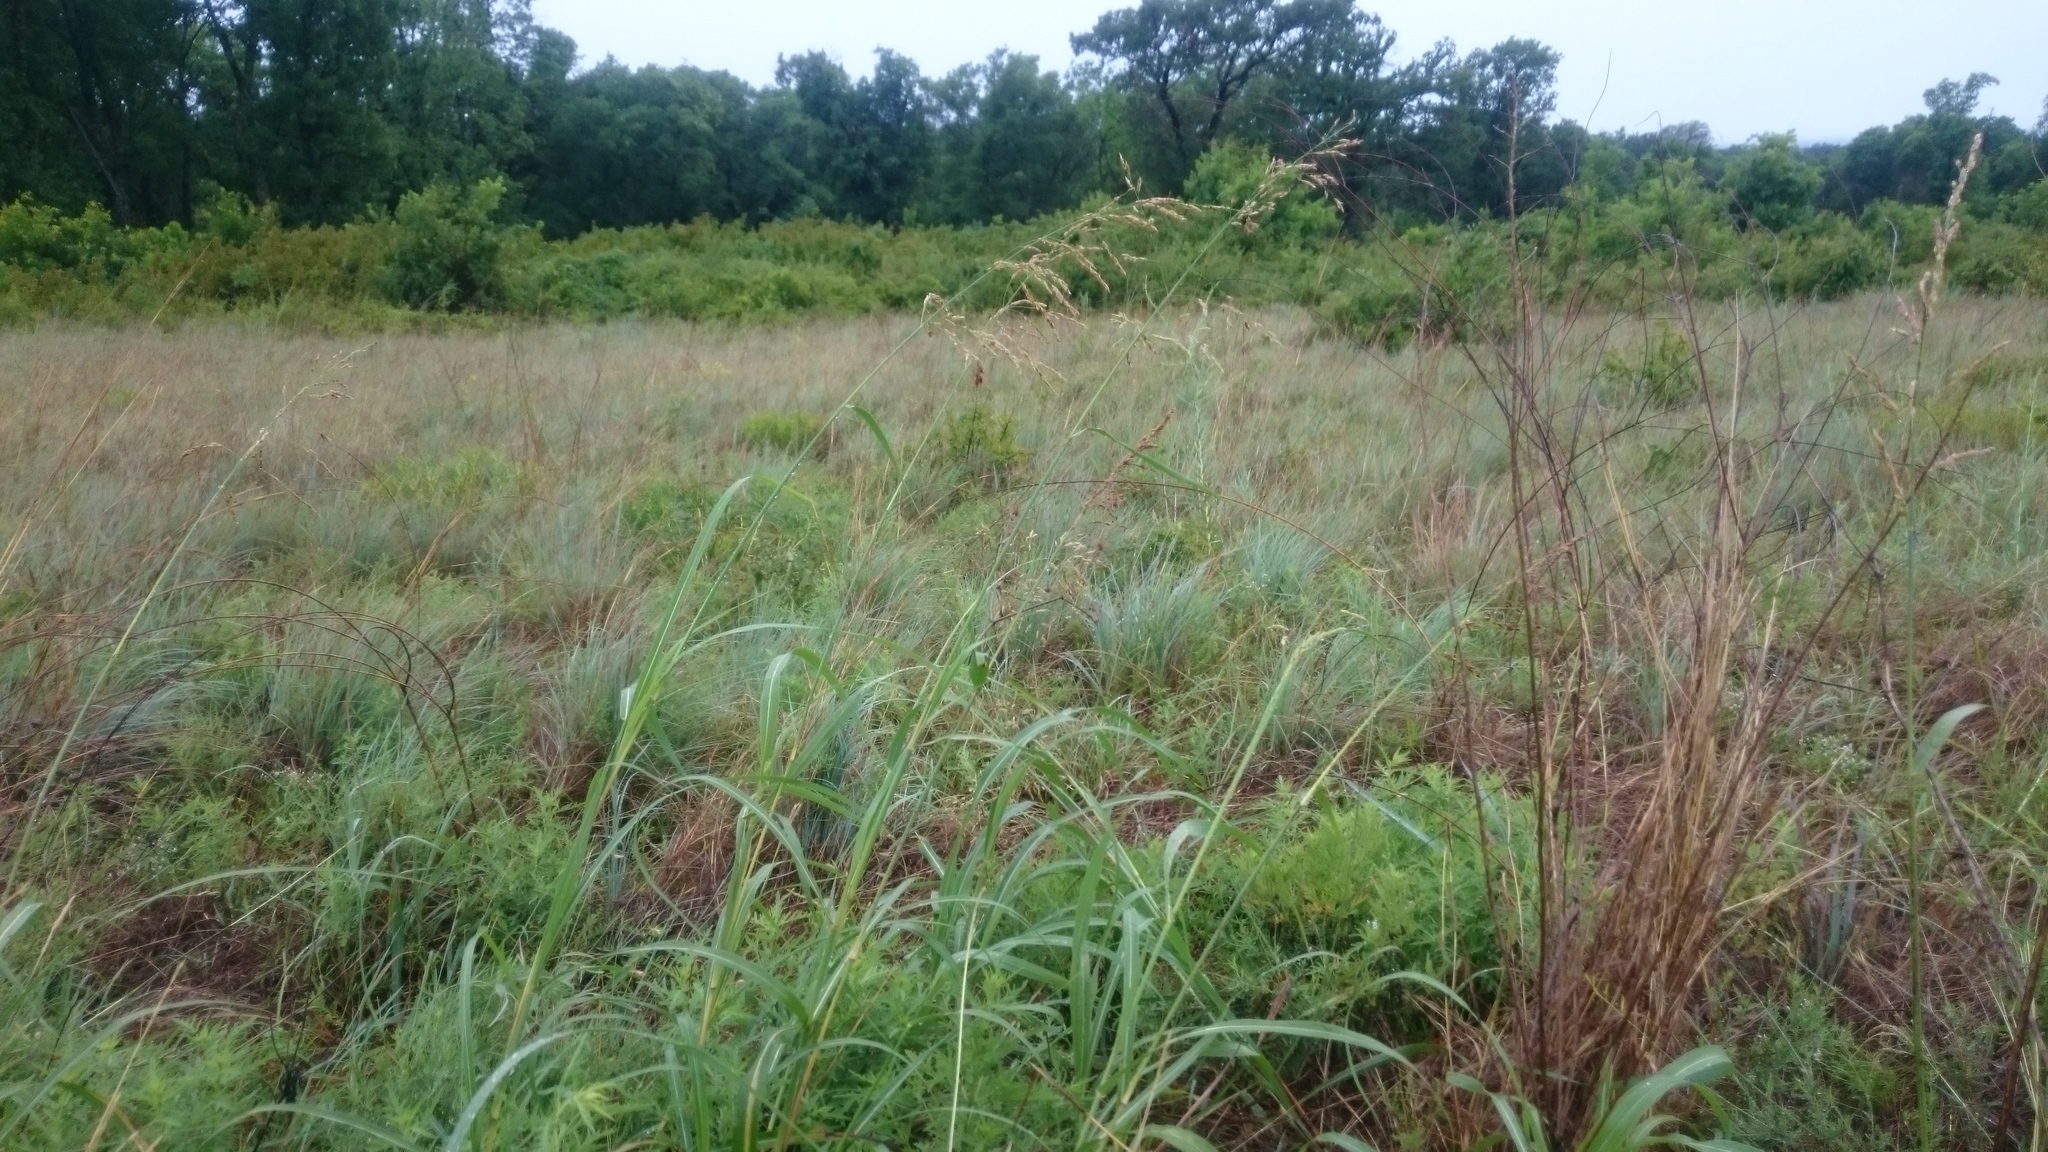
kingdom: Plantae
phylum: Tracheophyta
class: Liliopsida
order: Poales
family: Poaceae
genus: Sorghum
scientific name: Sorghum halepense
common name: Johnson-grass
